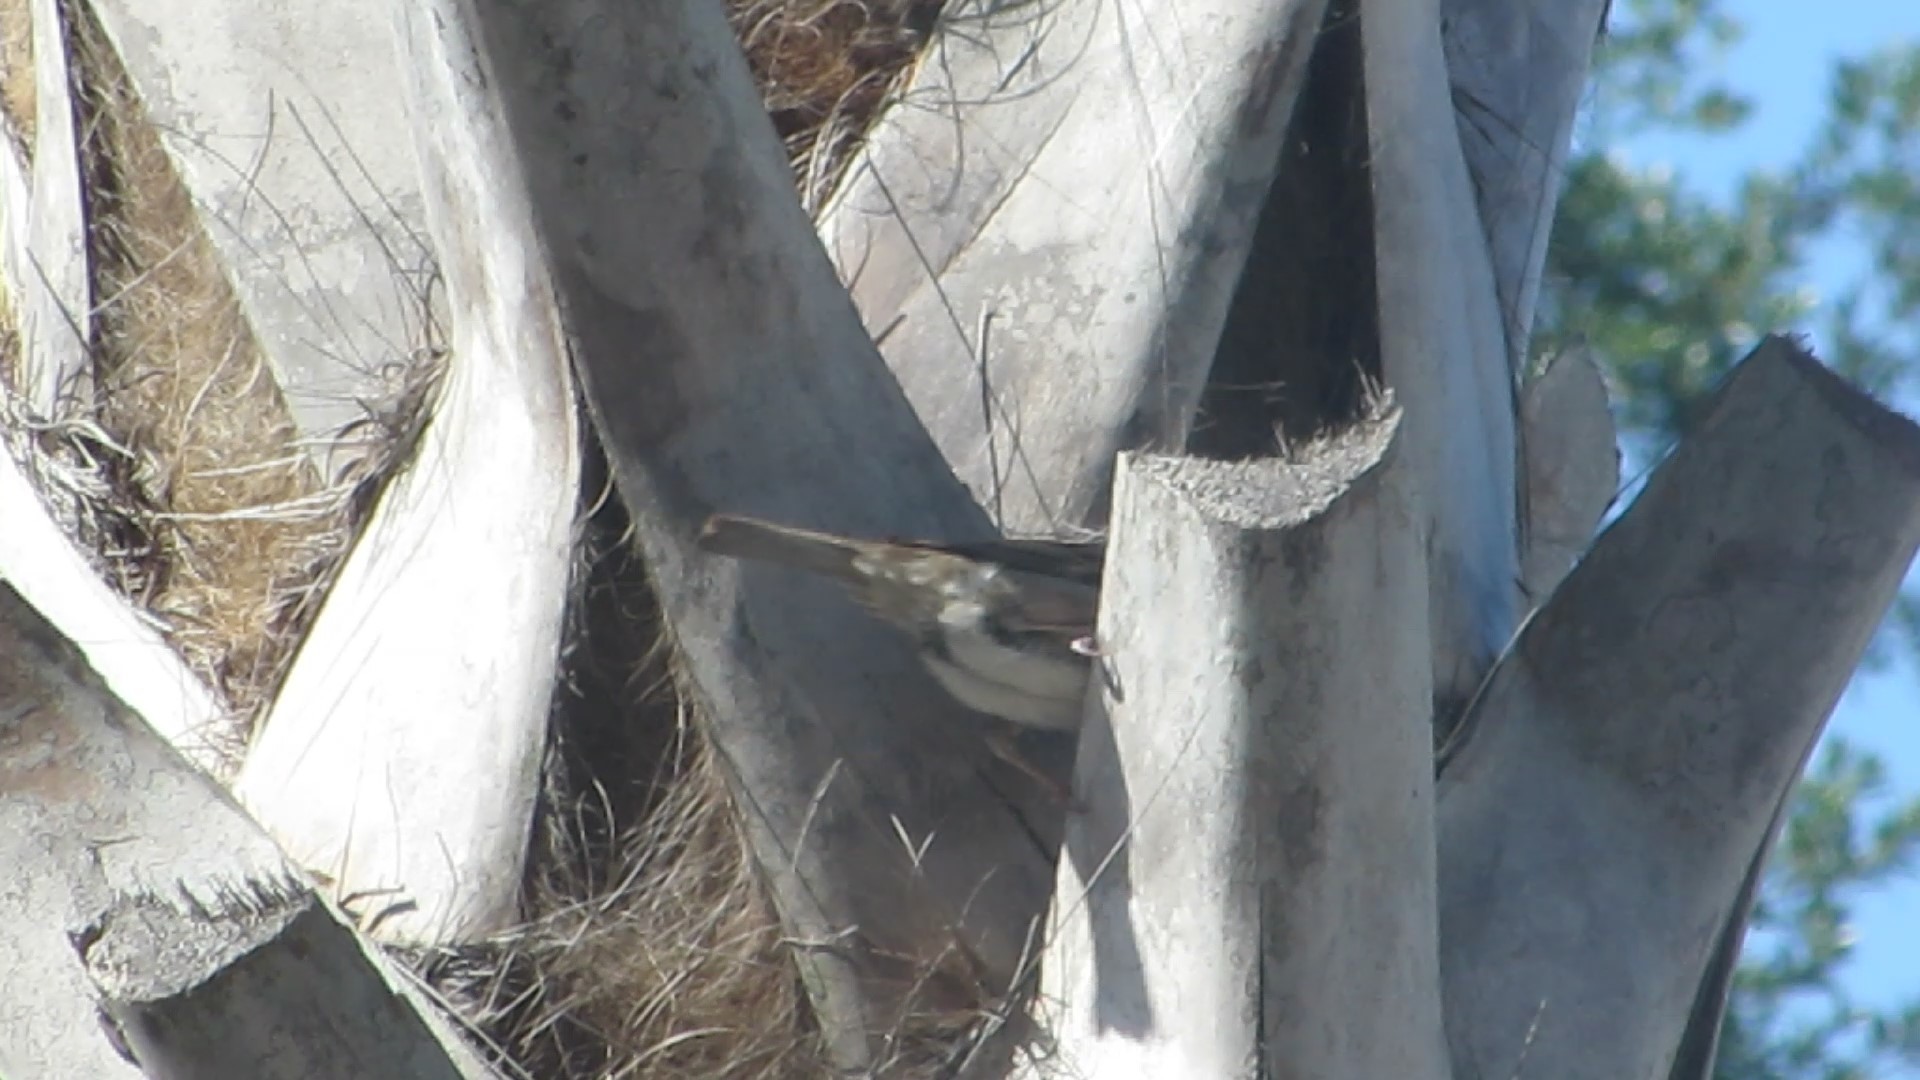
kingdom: Animalia
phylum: Chordata
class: Aves
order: Passeriformes
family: Passeridae
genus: Passer
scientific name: Passer domesticus
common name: House sparrow
